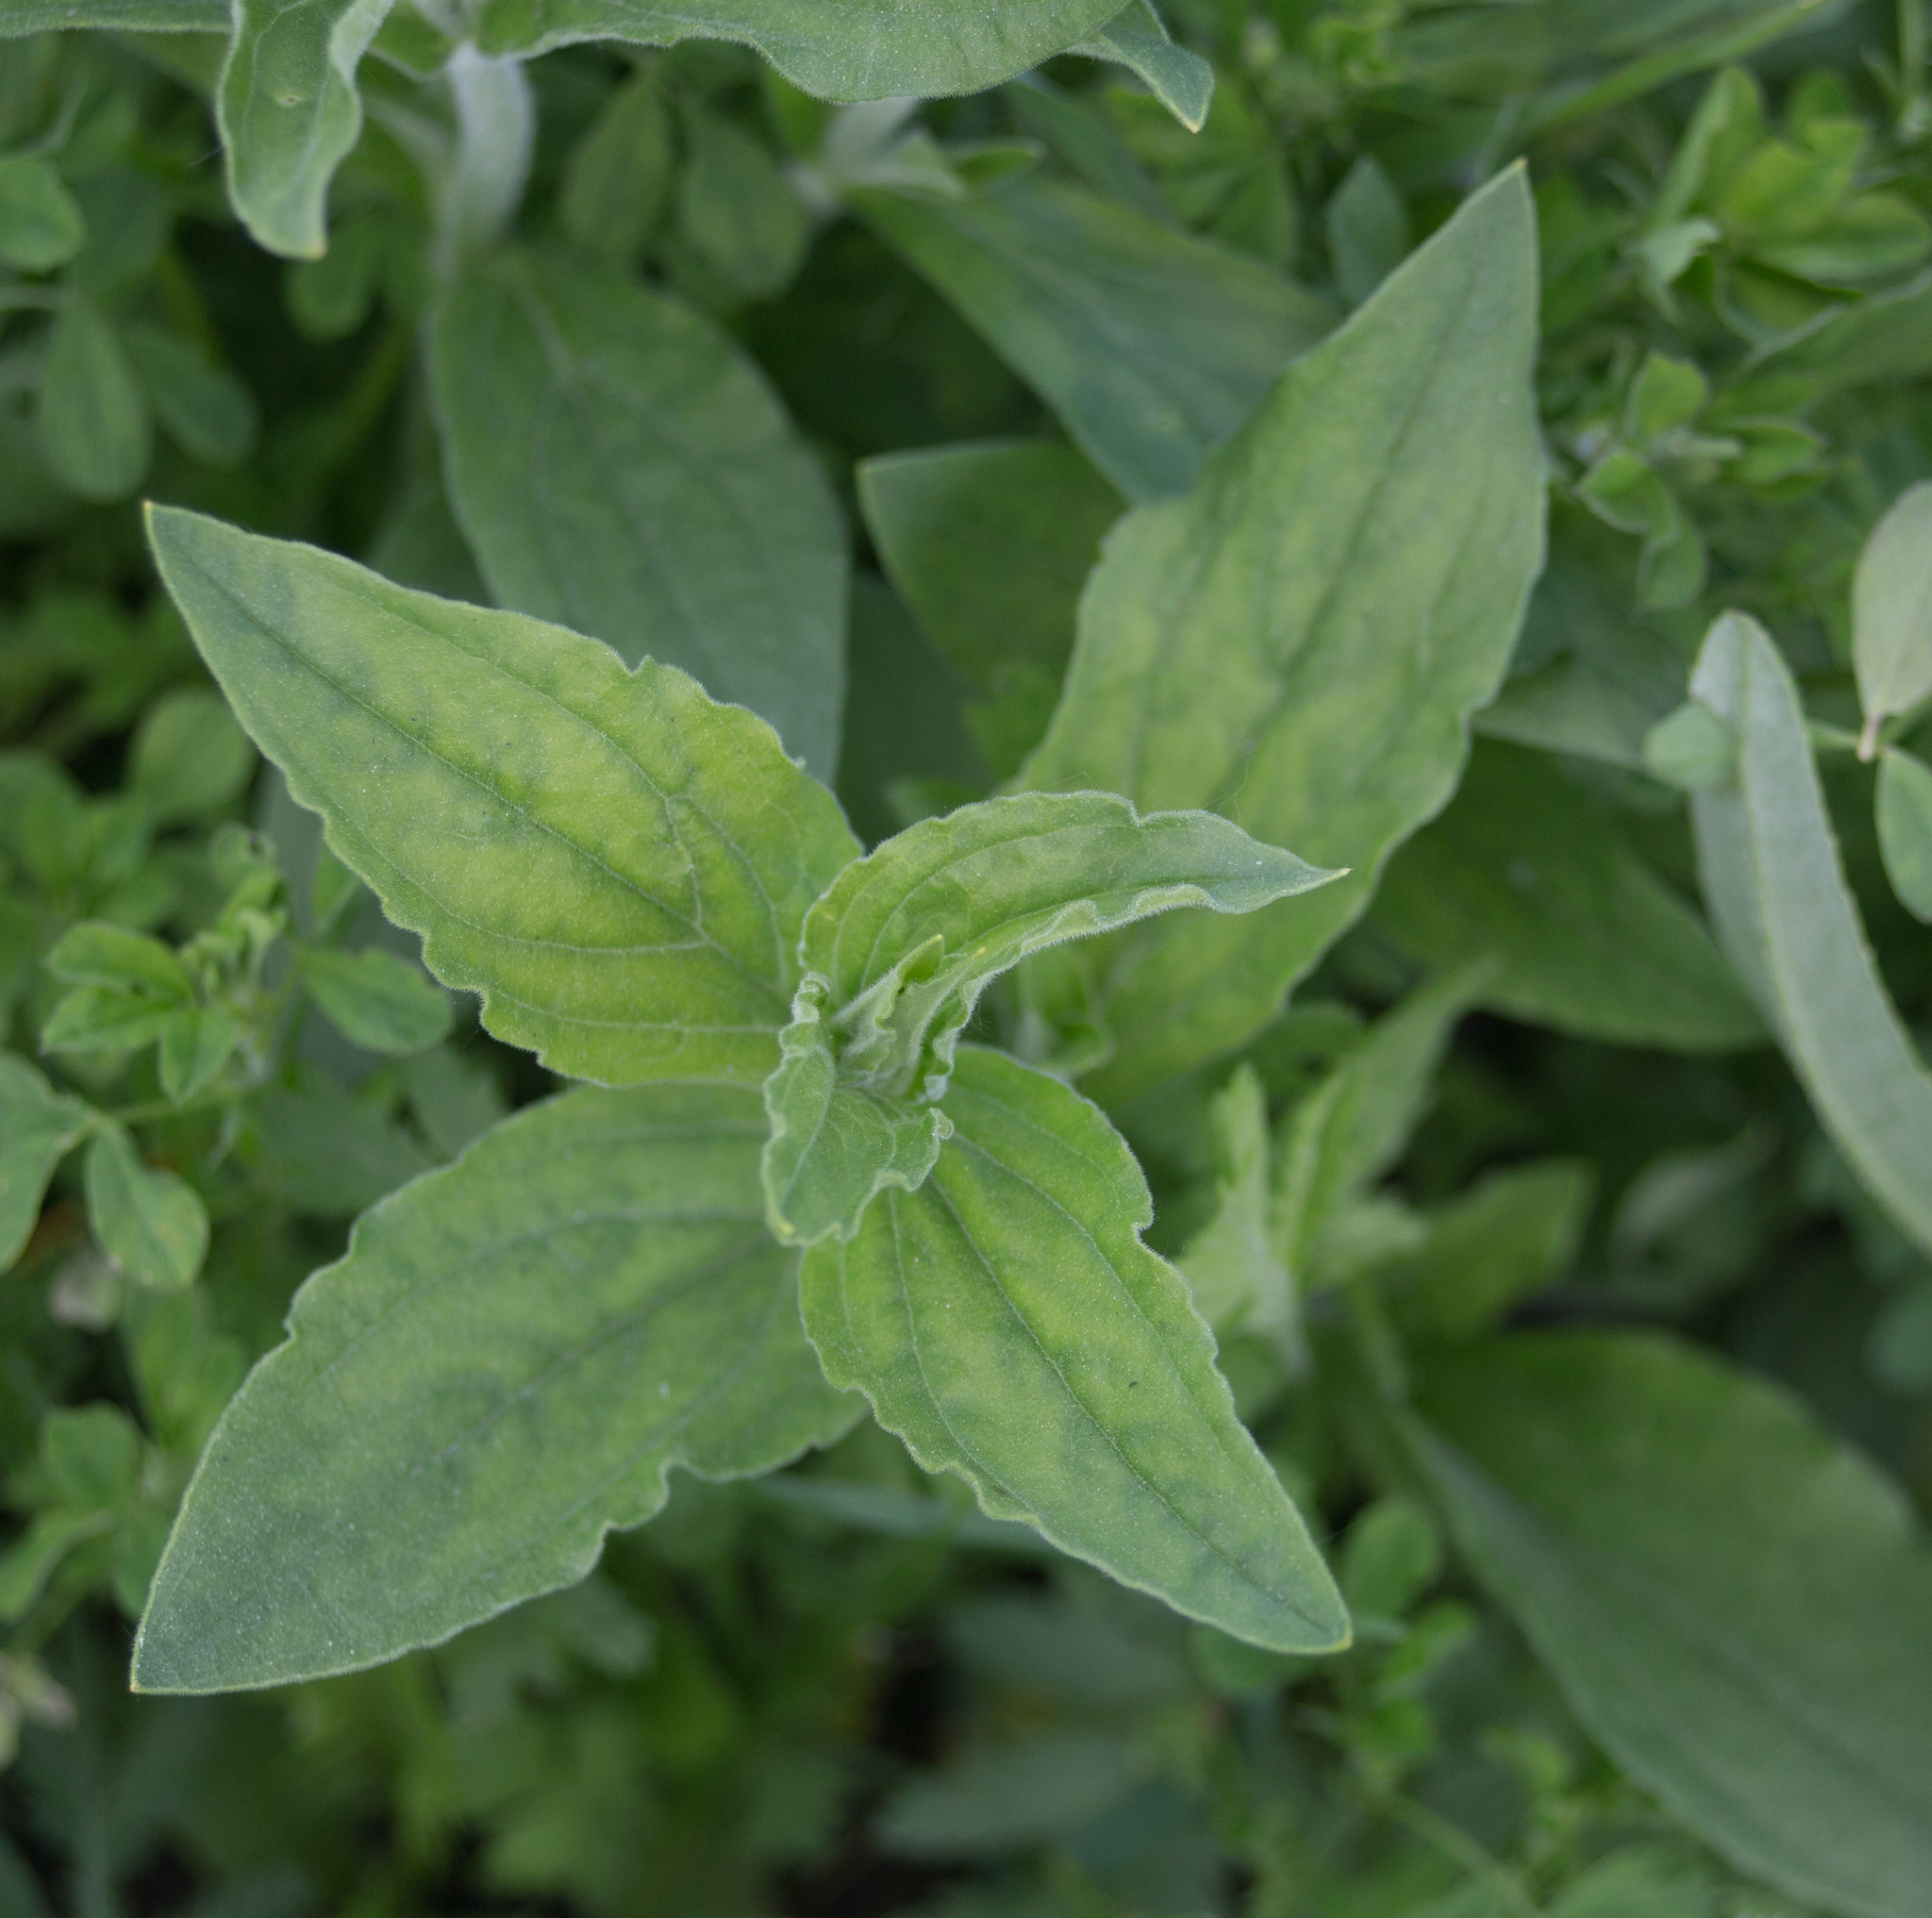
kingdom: Plantae
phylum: Tracheophyta
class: Magnoliopsida
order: Caryophyllales
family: Caryophyllaceae
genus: Silene
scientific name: Silene latifolia
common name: White campion
